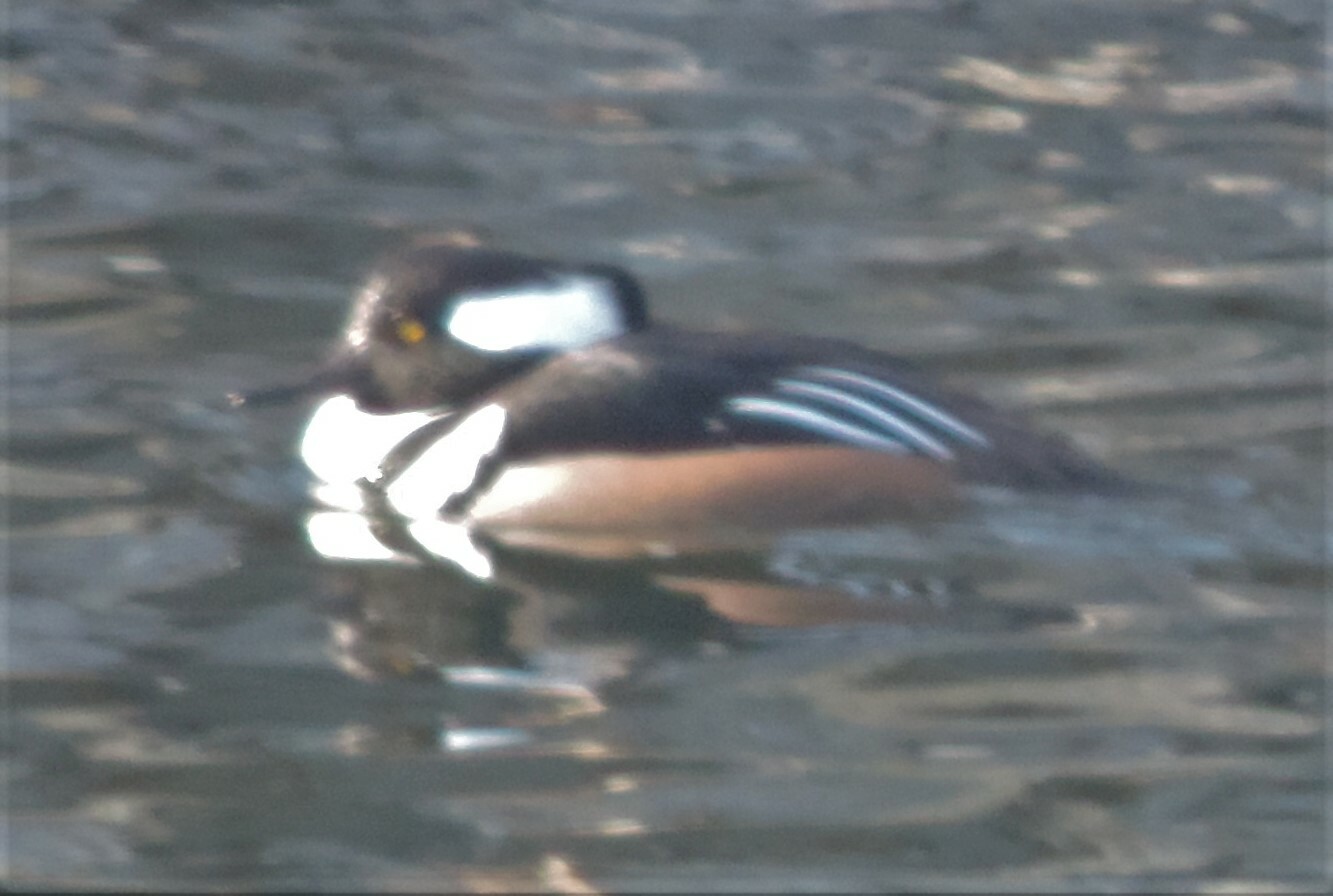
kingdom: Animalia
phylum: Chordata
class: Aves
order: Anseriformes
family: Anatidae
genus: Lophodytes
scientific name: Lophodytes cucullatus
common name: Hooded merganser
